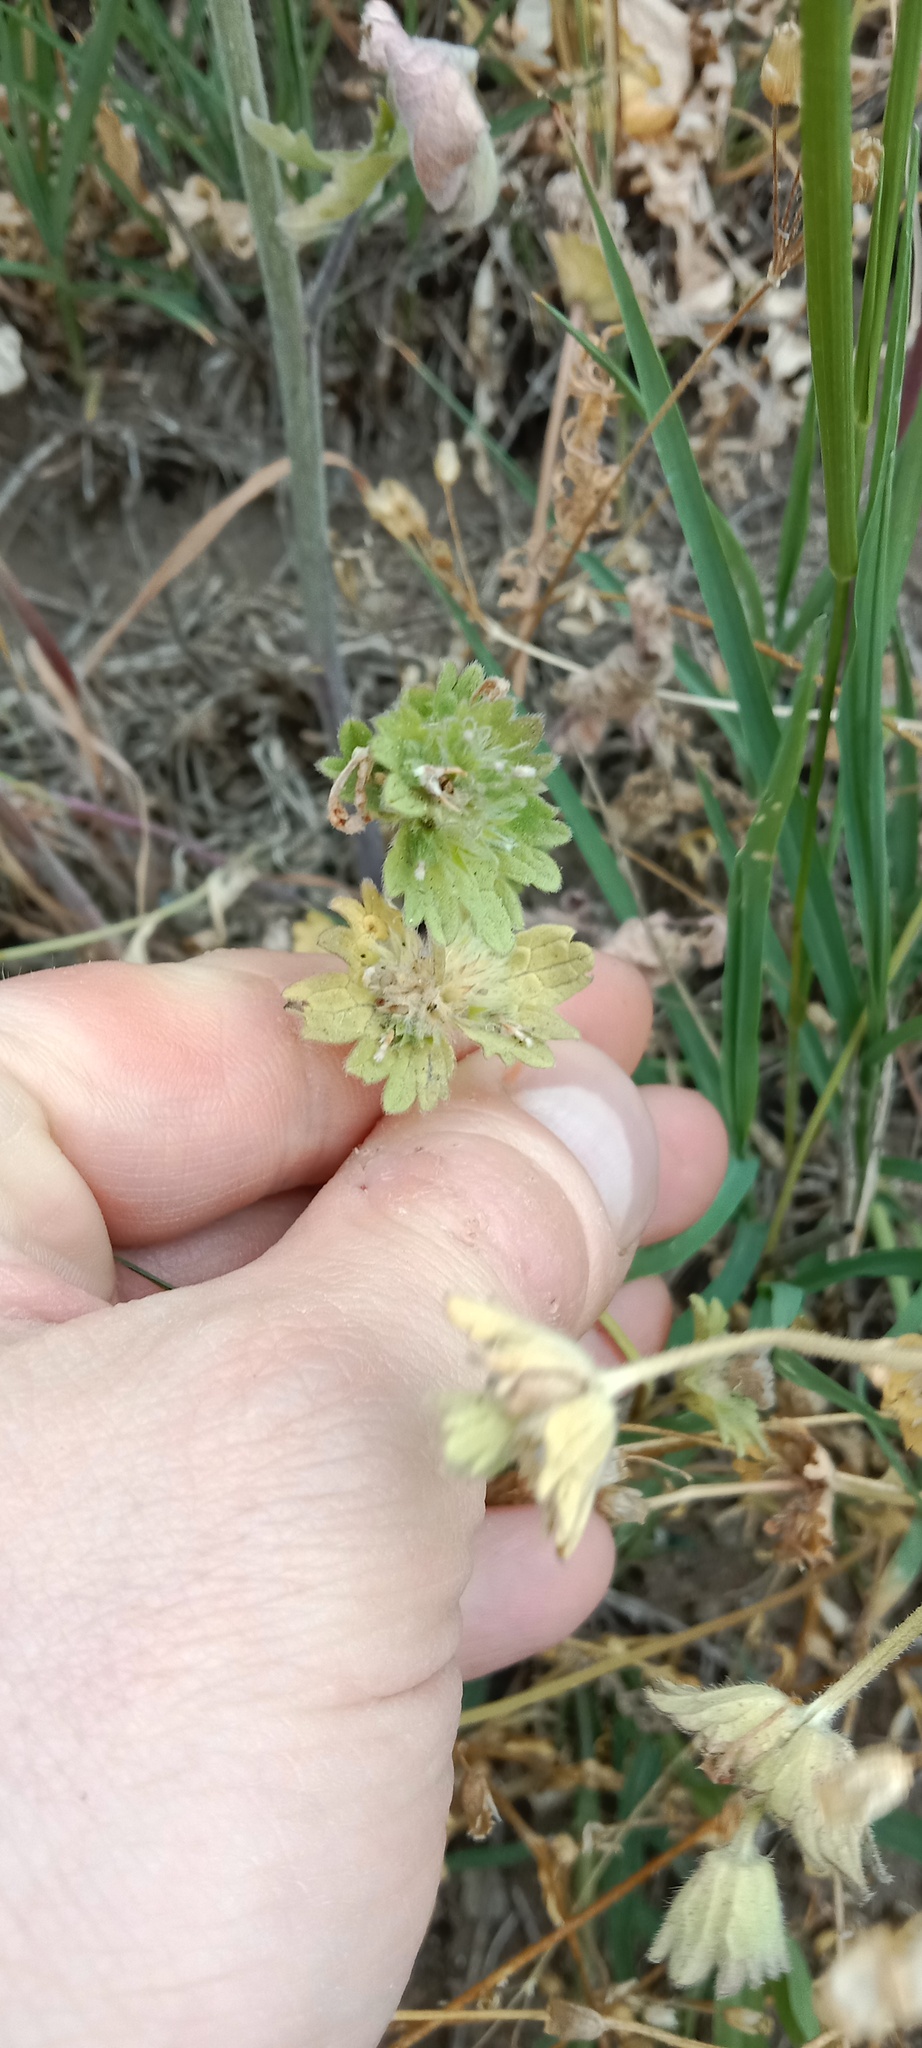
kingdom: Plantae
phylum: Tracheophyta
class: Magnoliopsida
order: Lamiales
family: Lamiaceae
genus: Lamium
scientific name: Lamium amplexicaule
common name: Henbit dead-nettle
